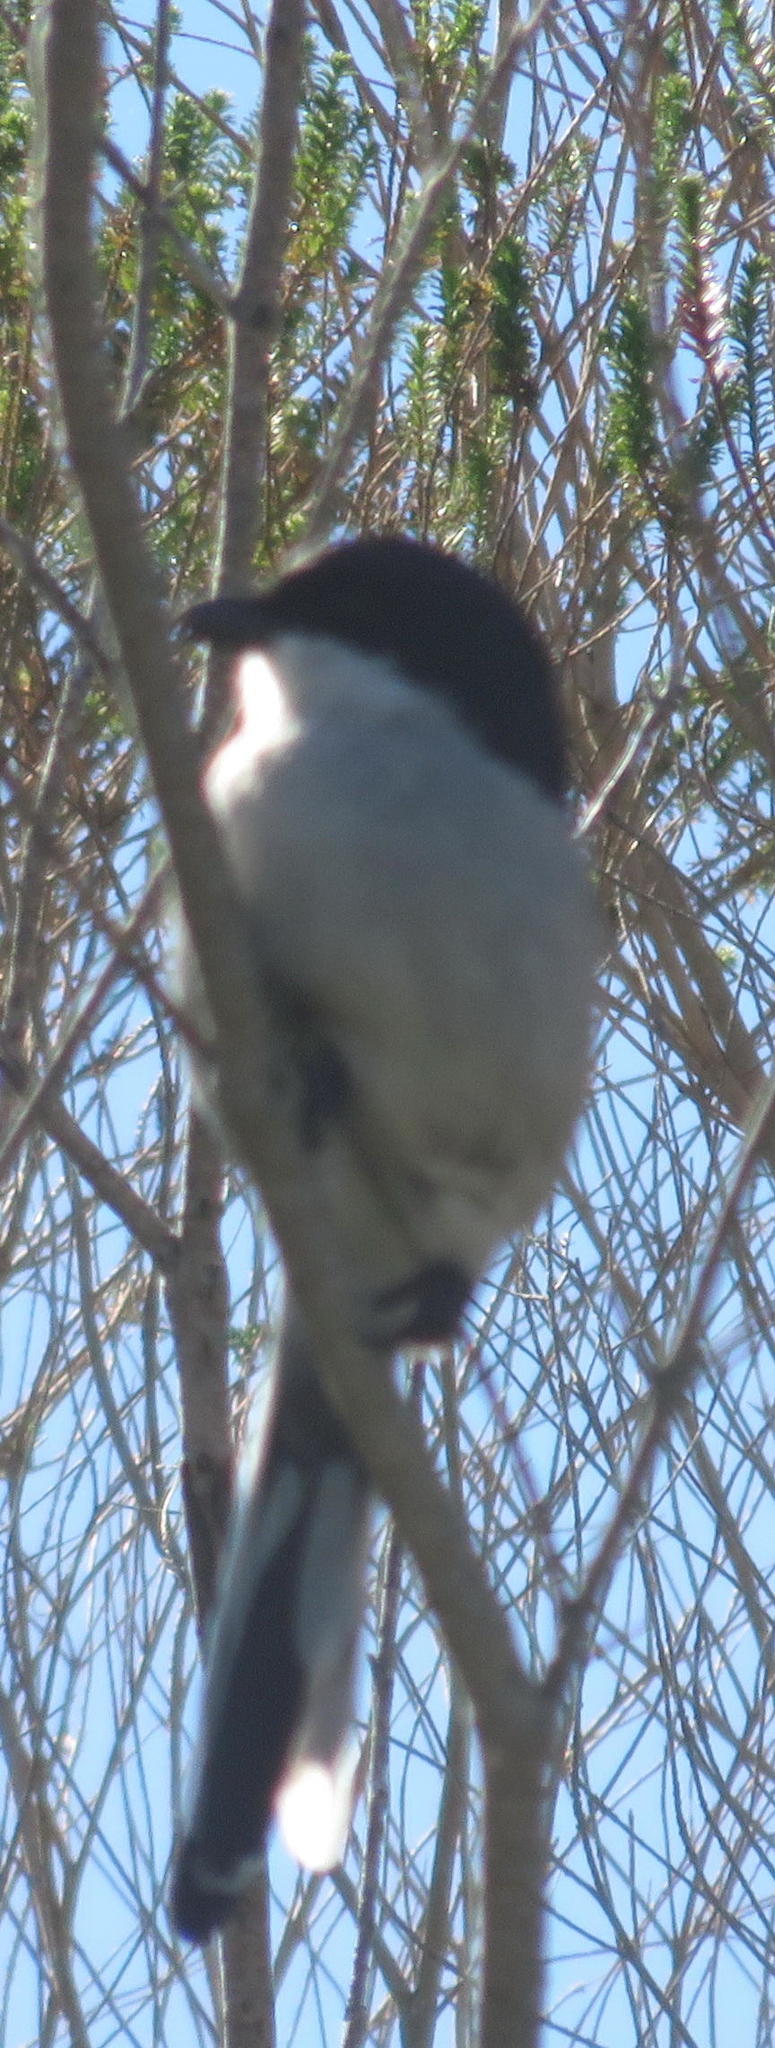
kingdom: Animalia
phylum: Chordata
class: Aves
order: Passeriformes
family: Laniidae
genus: Lanius
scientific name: Lanius collaris
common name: Southern fiscal
